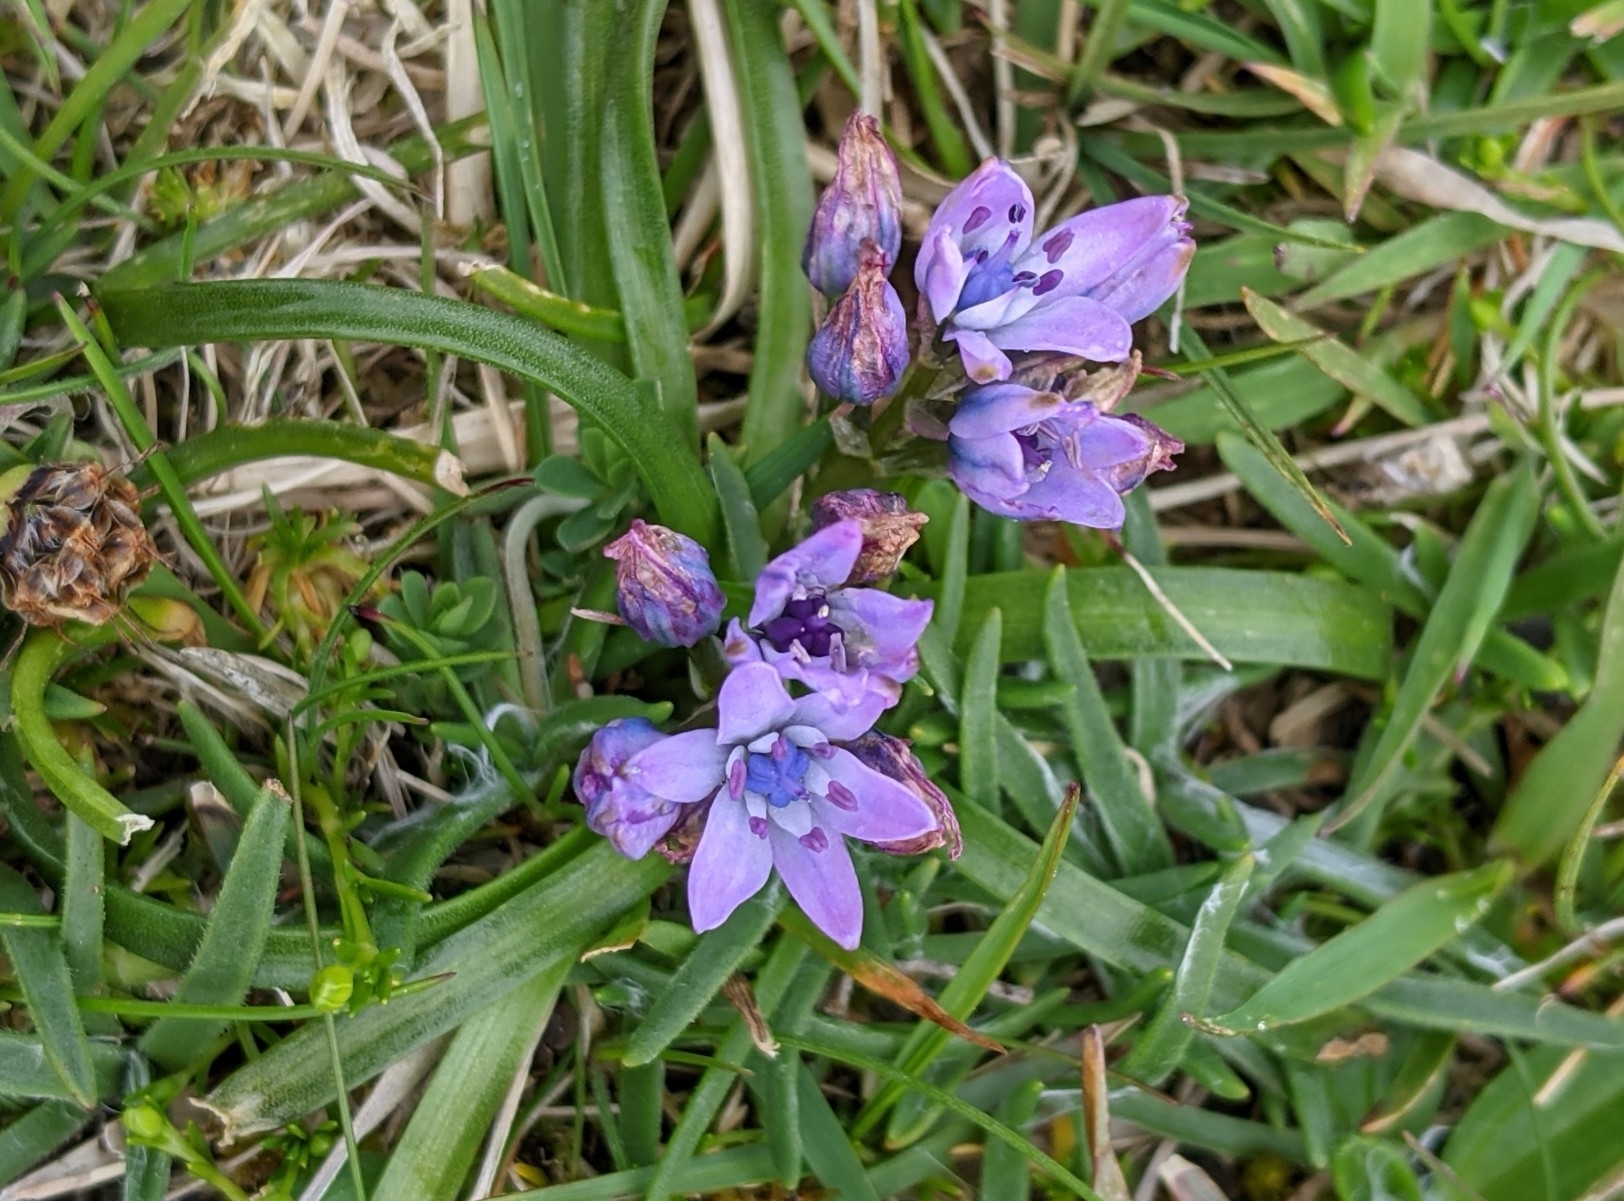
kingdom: Plantae
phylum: Tracheophyta
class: Liliopsida
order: Asparagales
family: Asparagaceae
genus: Scilla
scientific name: Scilla verna
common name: Spring squill
